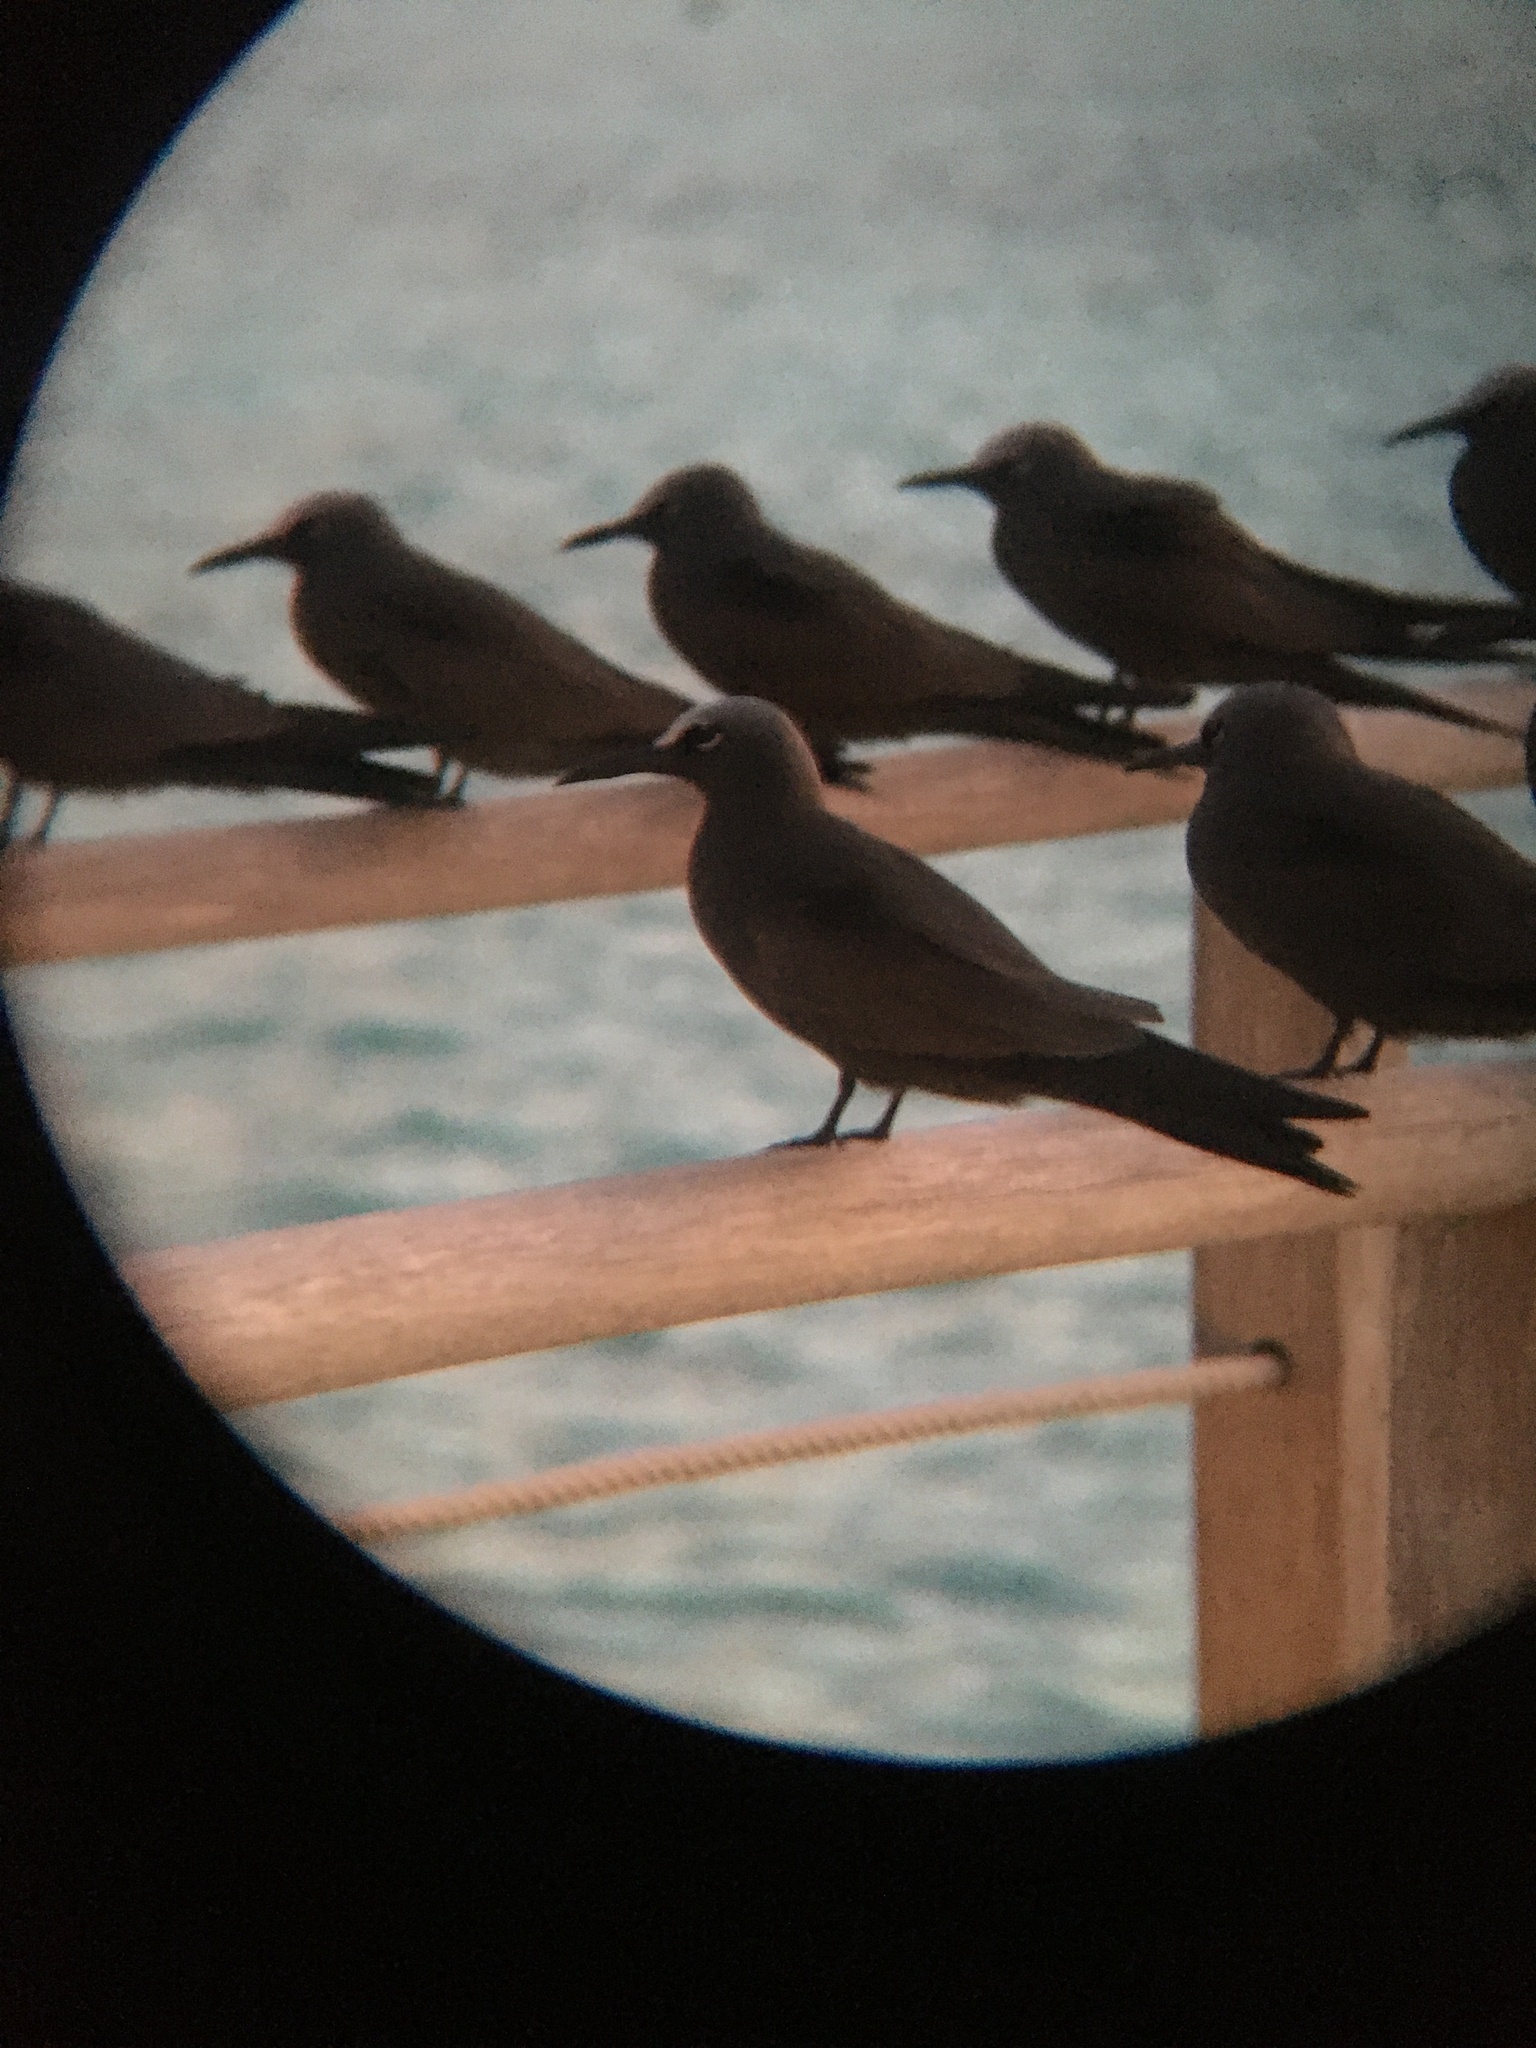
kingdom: Animalia
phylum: Chordata
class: Aves
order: Charadriiformes
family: Laridae
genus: Anous
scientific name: Anous stolidus
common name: Brown noddy
